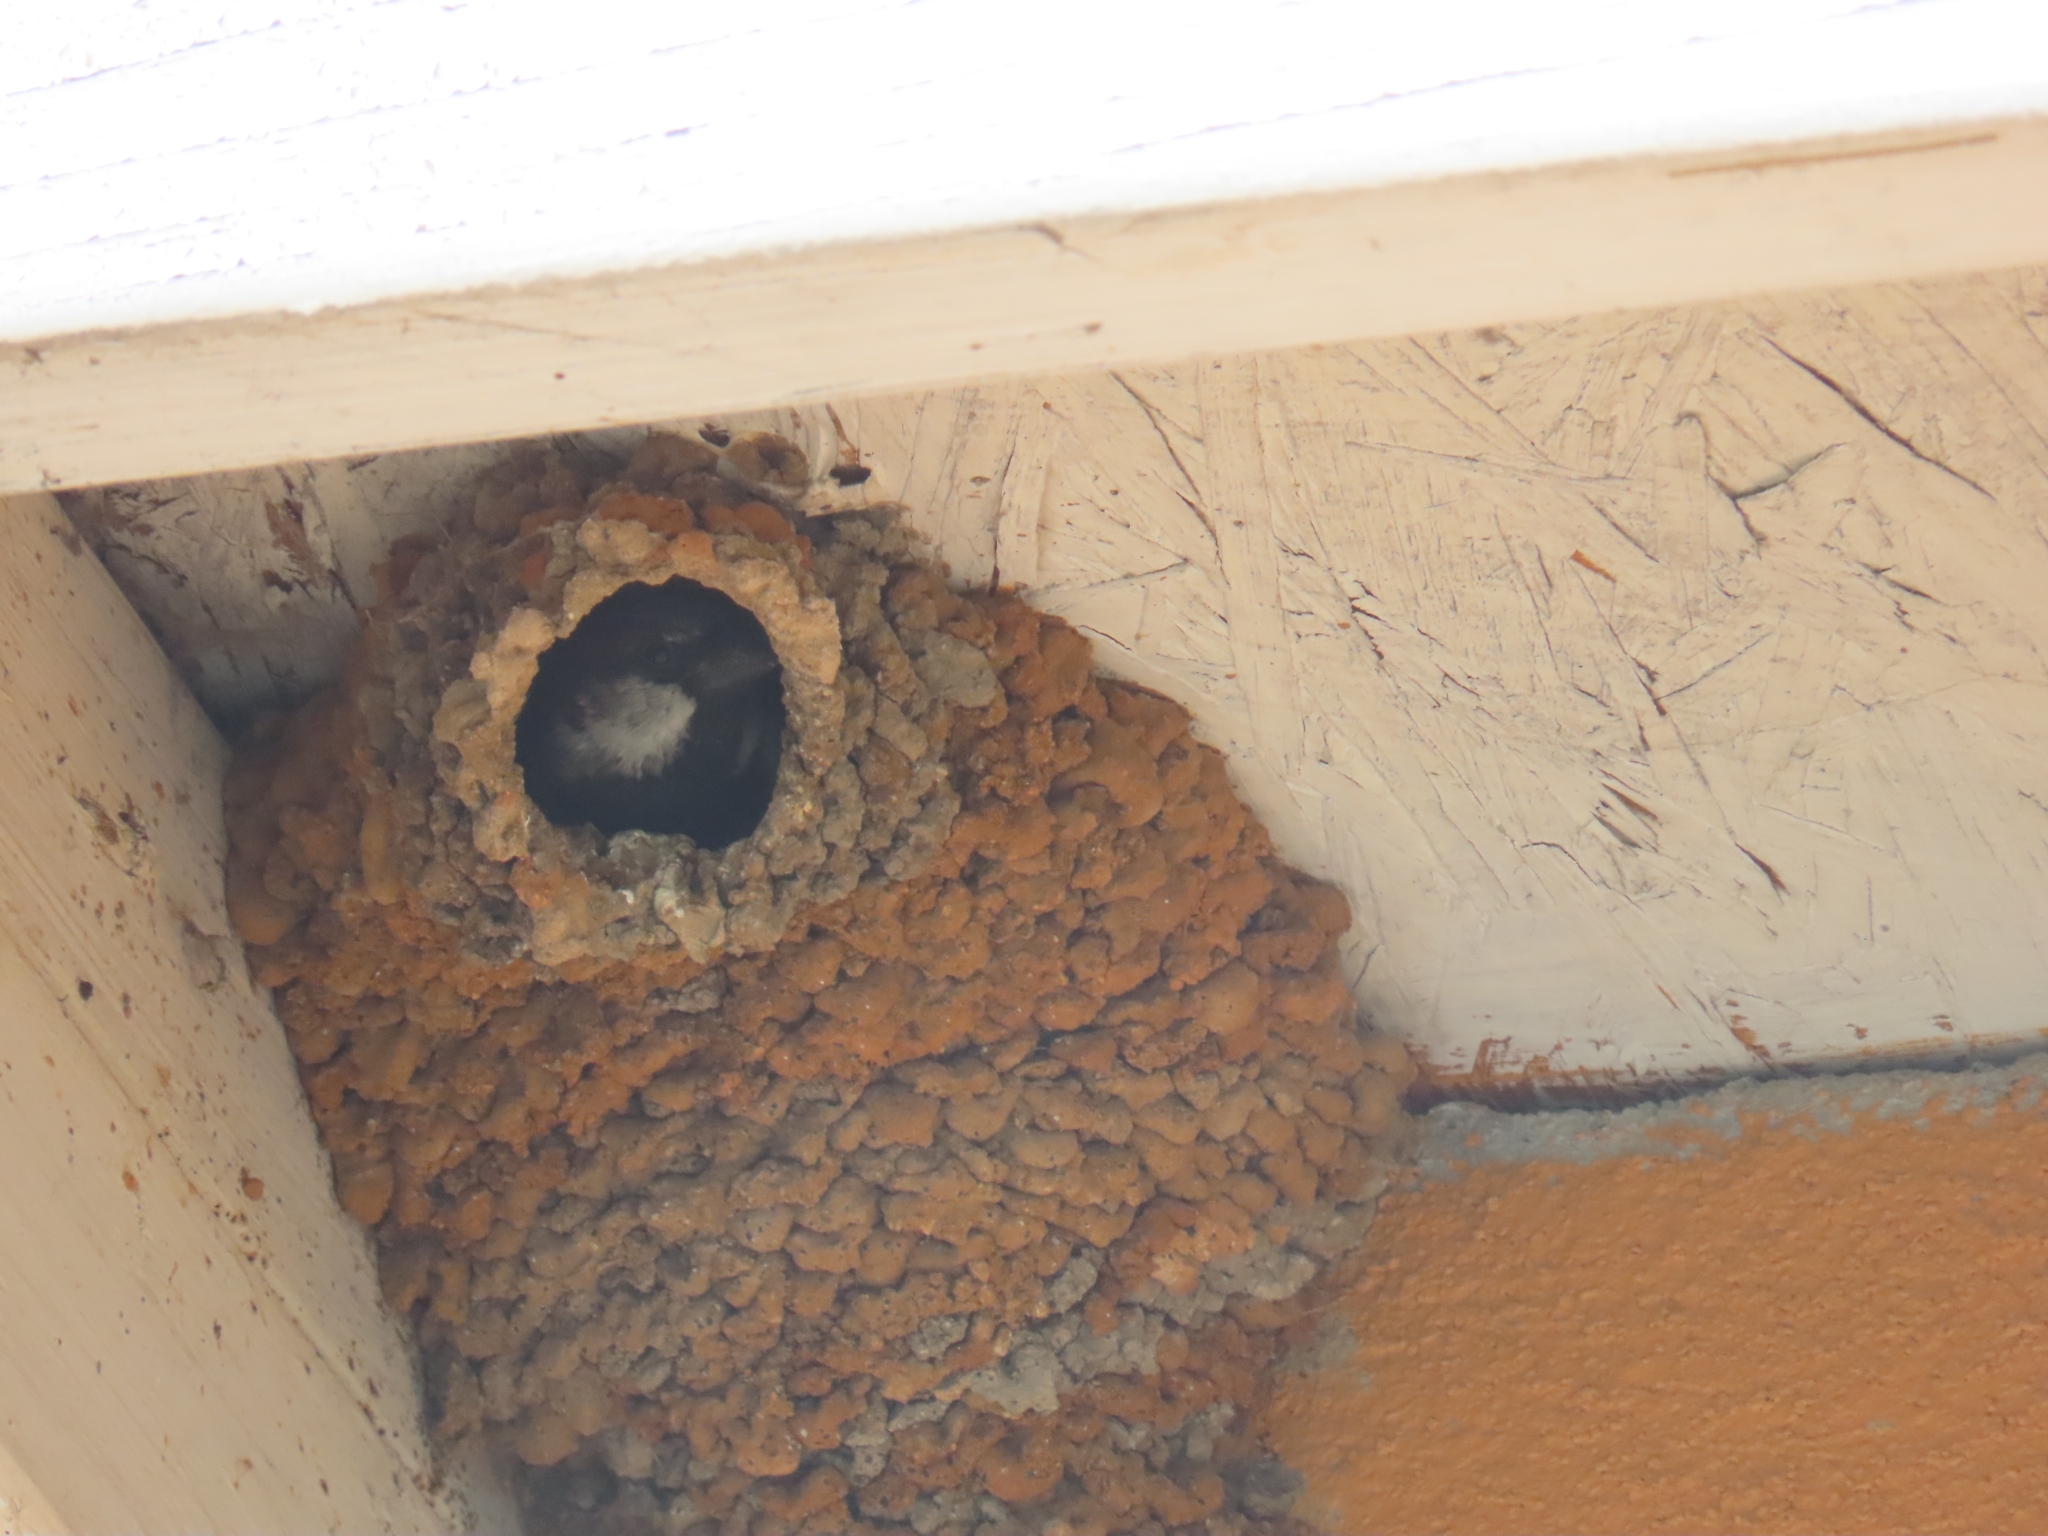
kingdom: Animalia
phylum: Chordata
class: Aves
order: Passeriformes
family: Passeridae
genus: Passer
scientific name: Passer domesticus
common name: House sparrow
